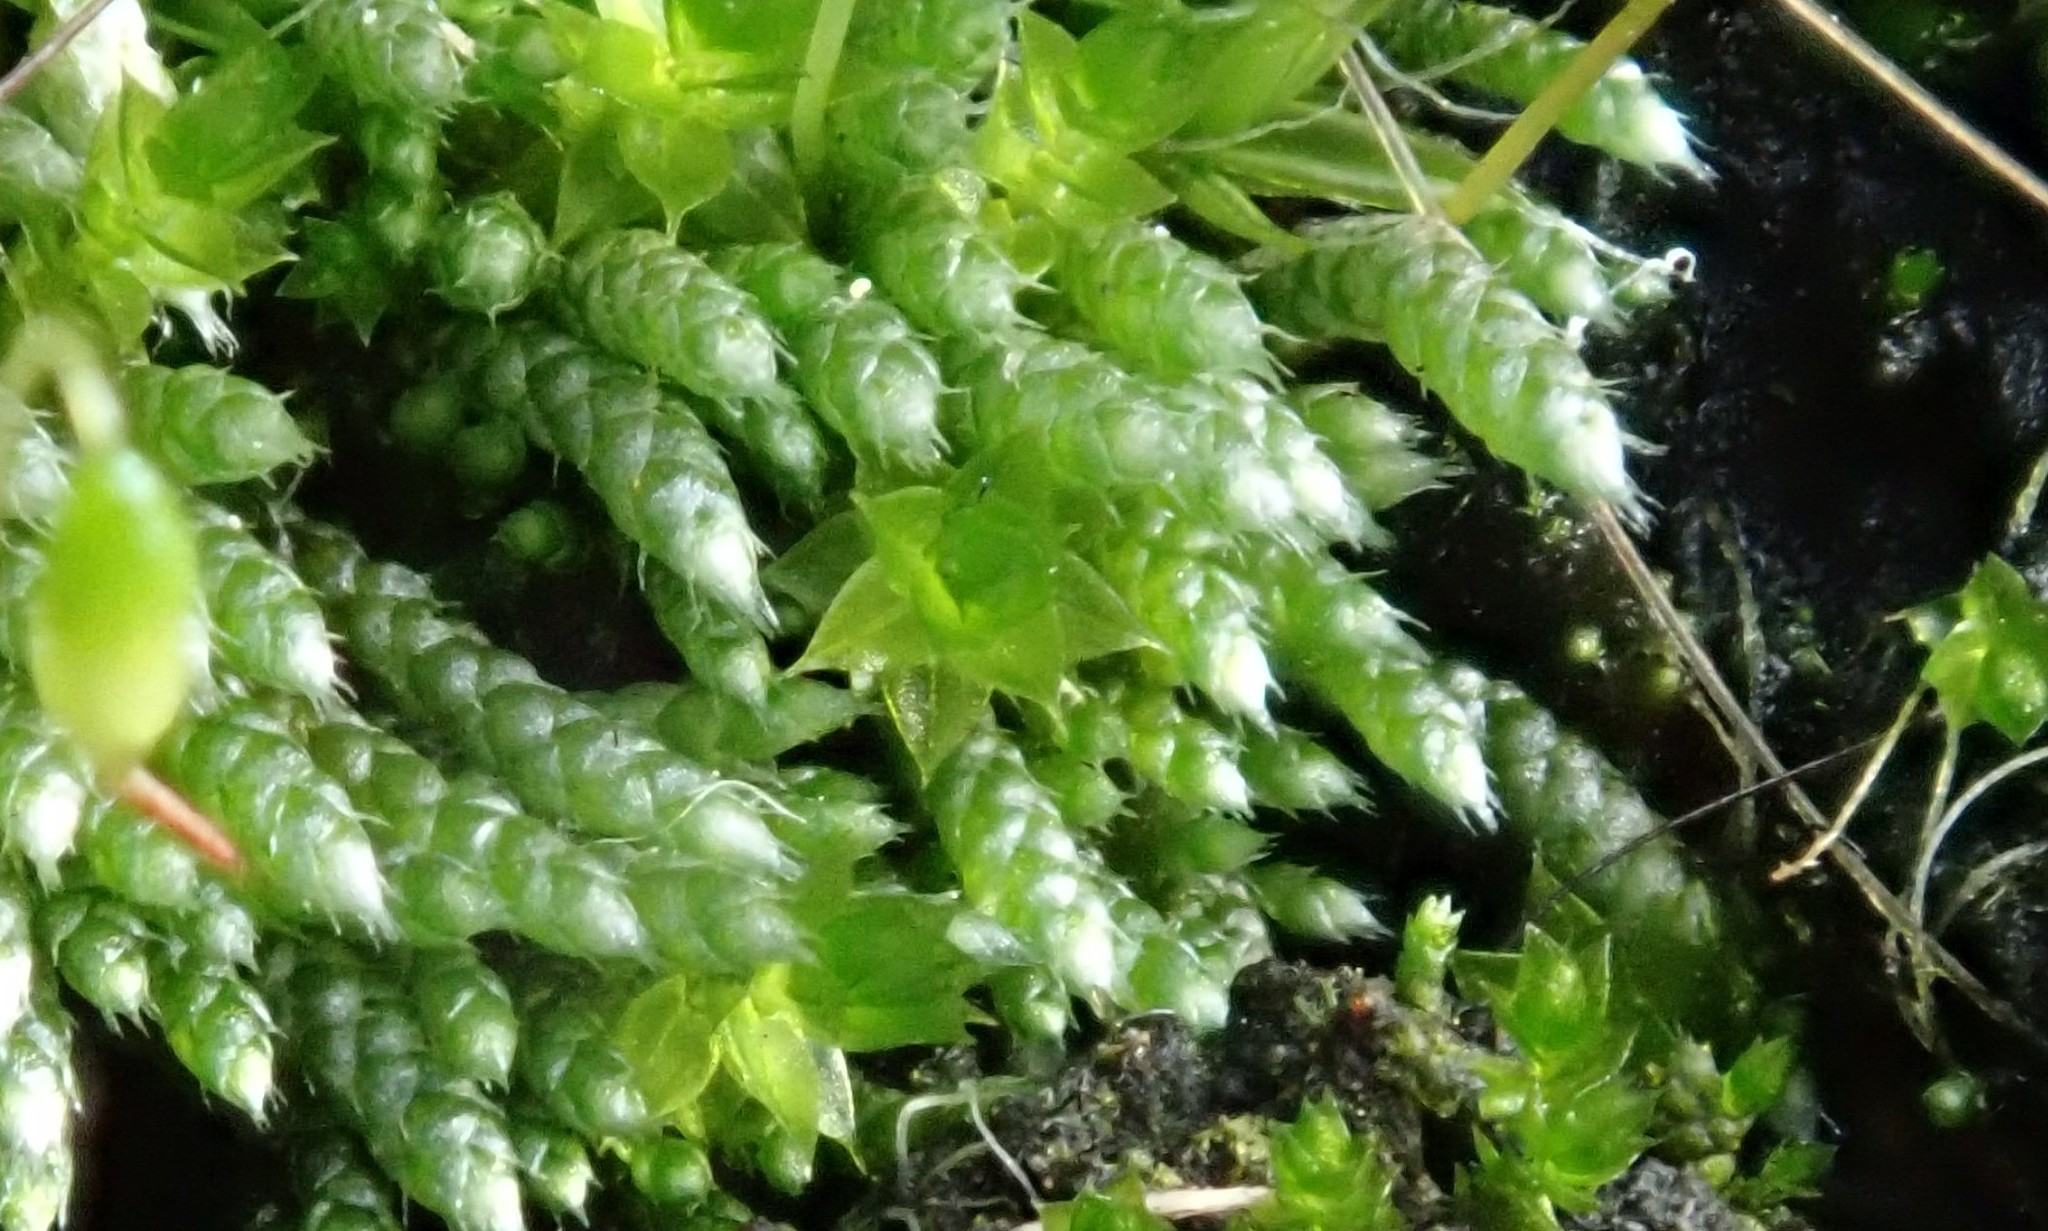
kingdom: Plantae
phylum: Bryophyta
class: Bryopsida
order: Bryales
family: Bryaceae
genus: Bryum
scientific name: Bryum argenteum
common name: Silver-moss
